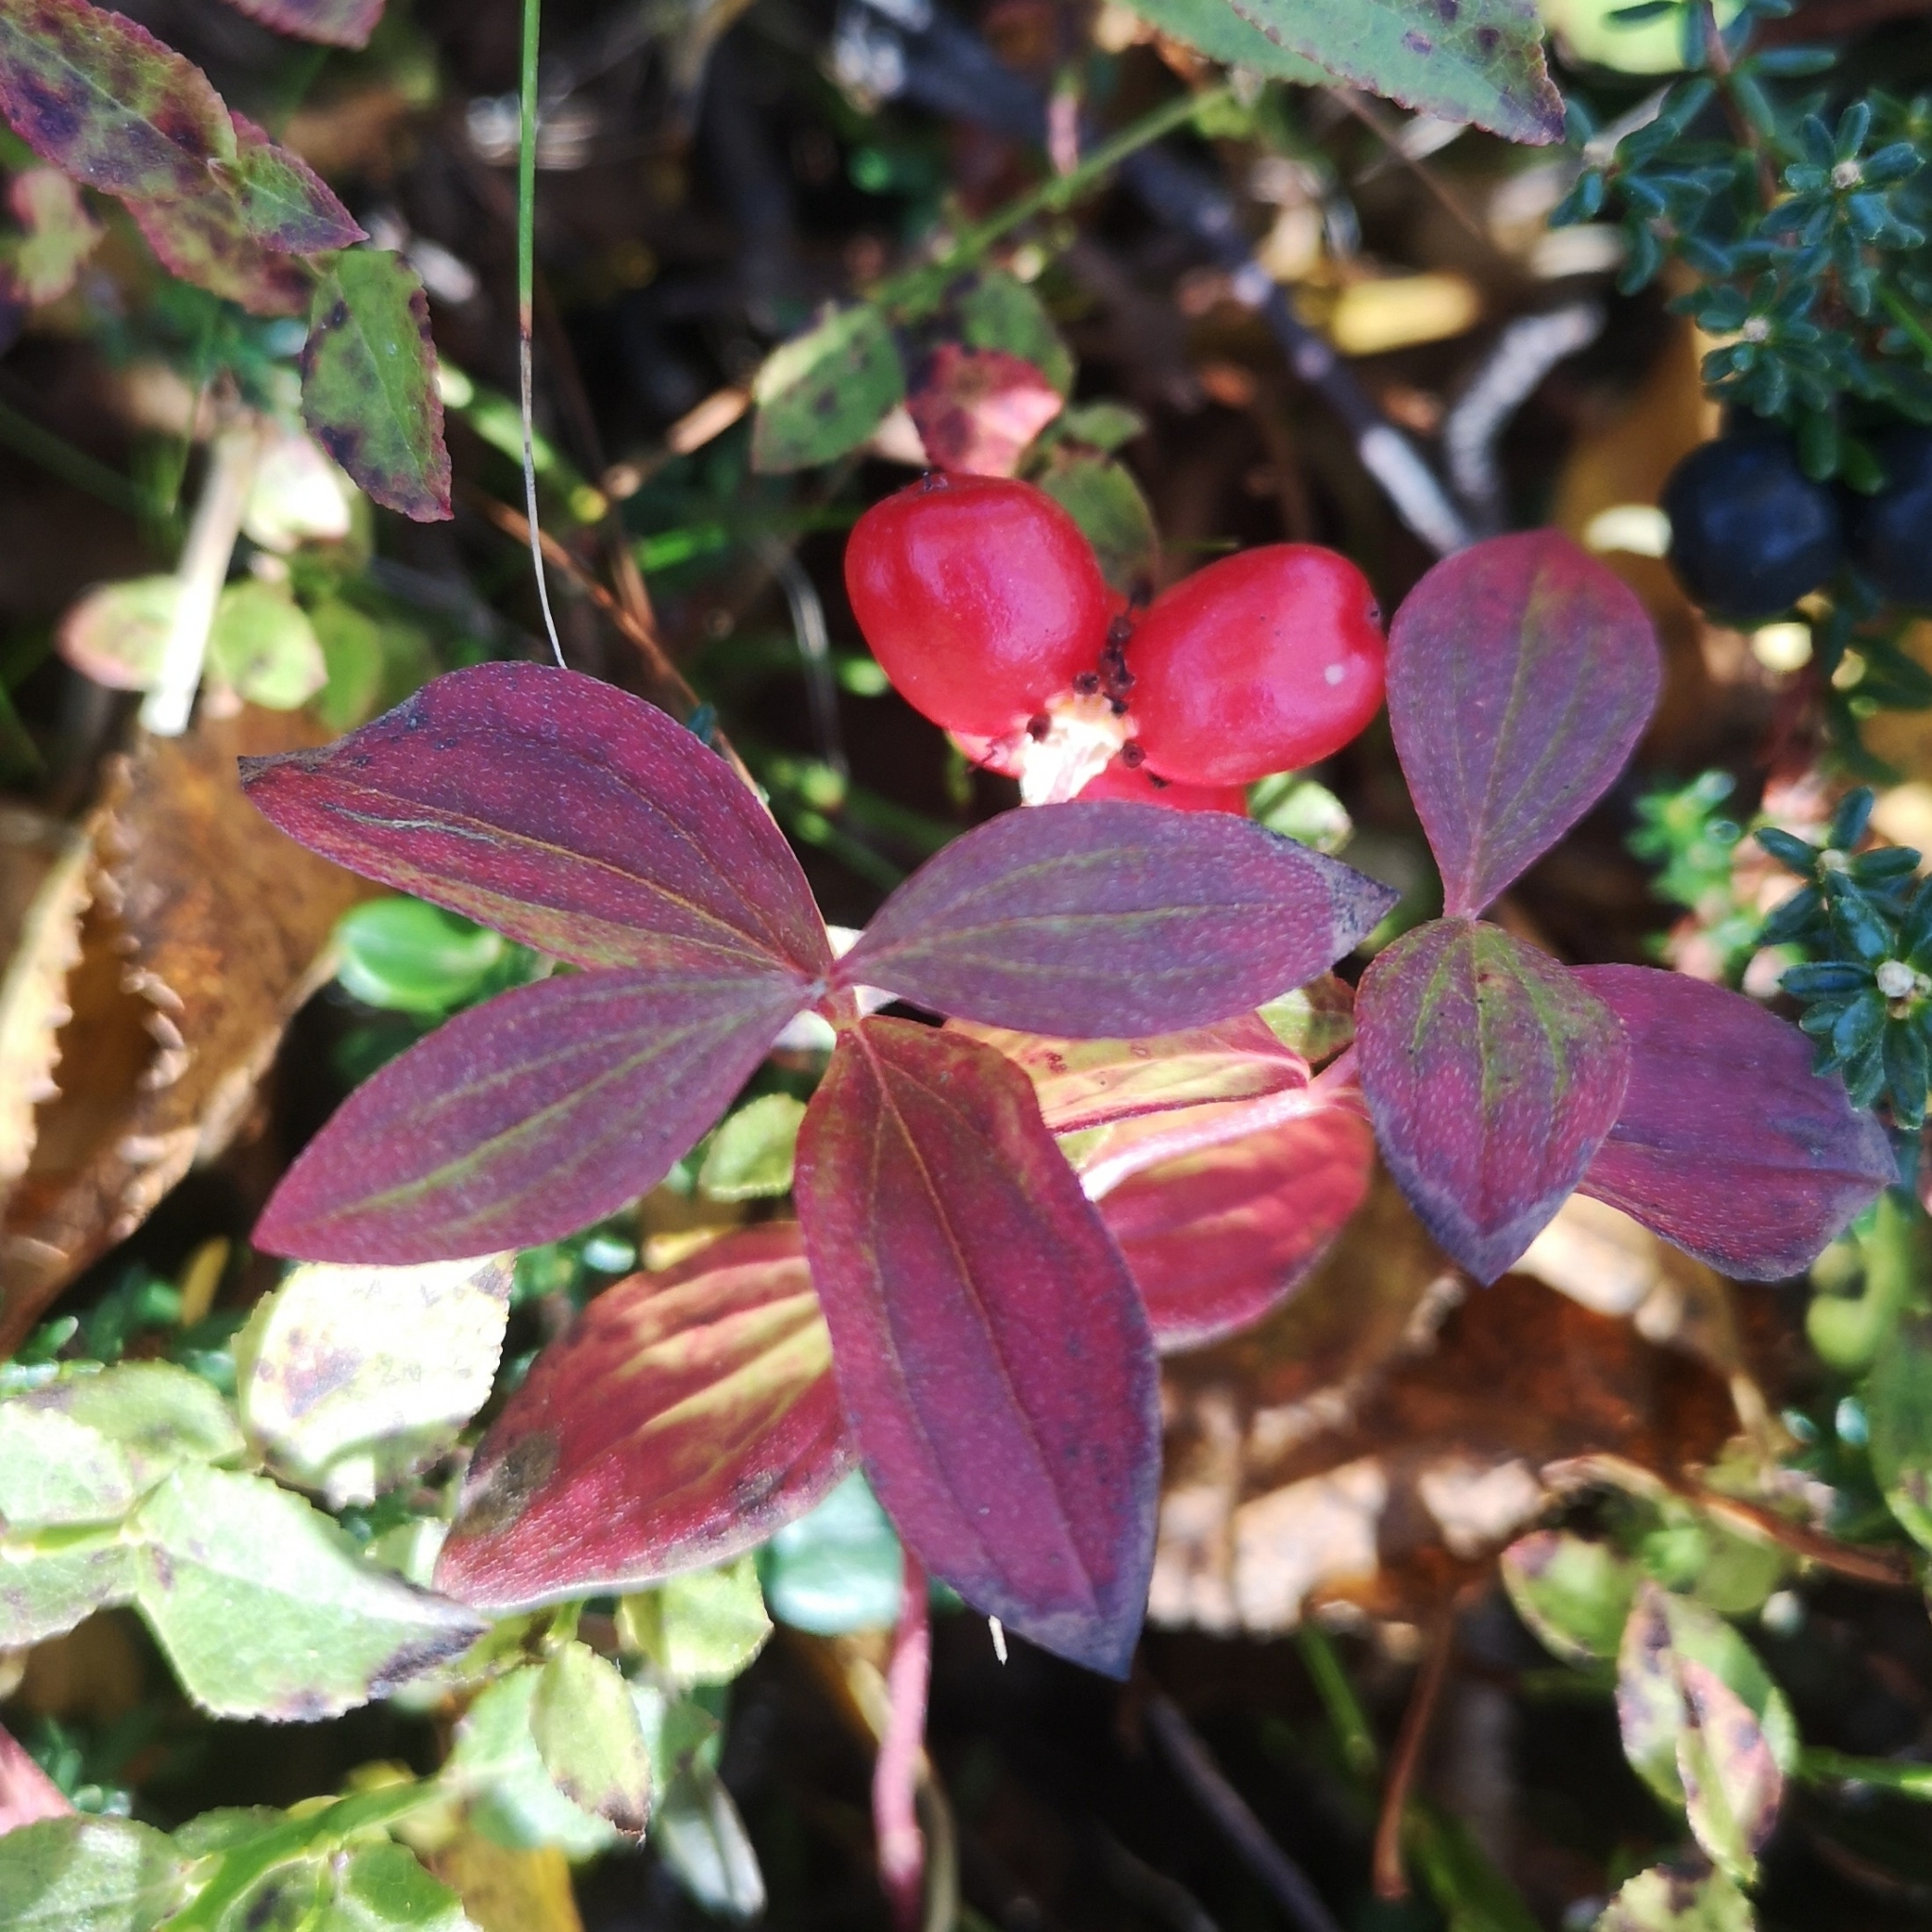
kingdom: Plantae
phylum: Tracheophyta
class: Magnoliopsida
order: Cornales
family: Cornaceae
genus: Cornus
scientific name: Cornus suecica
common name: Dwarf cornel
